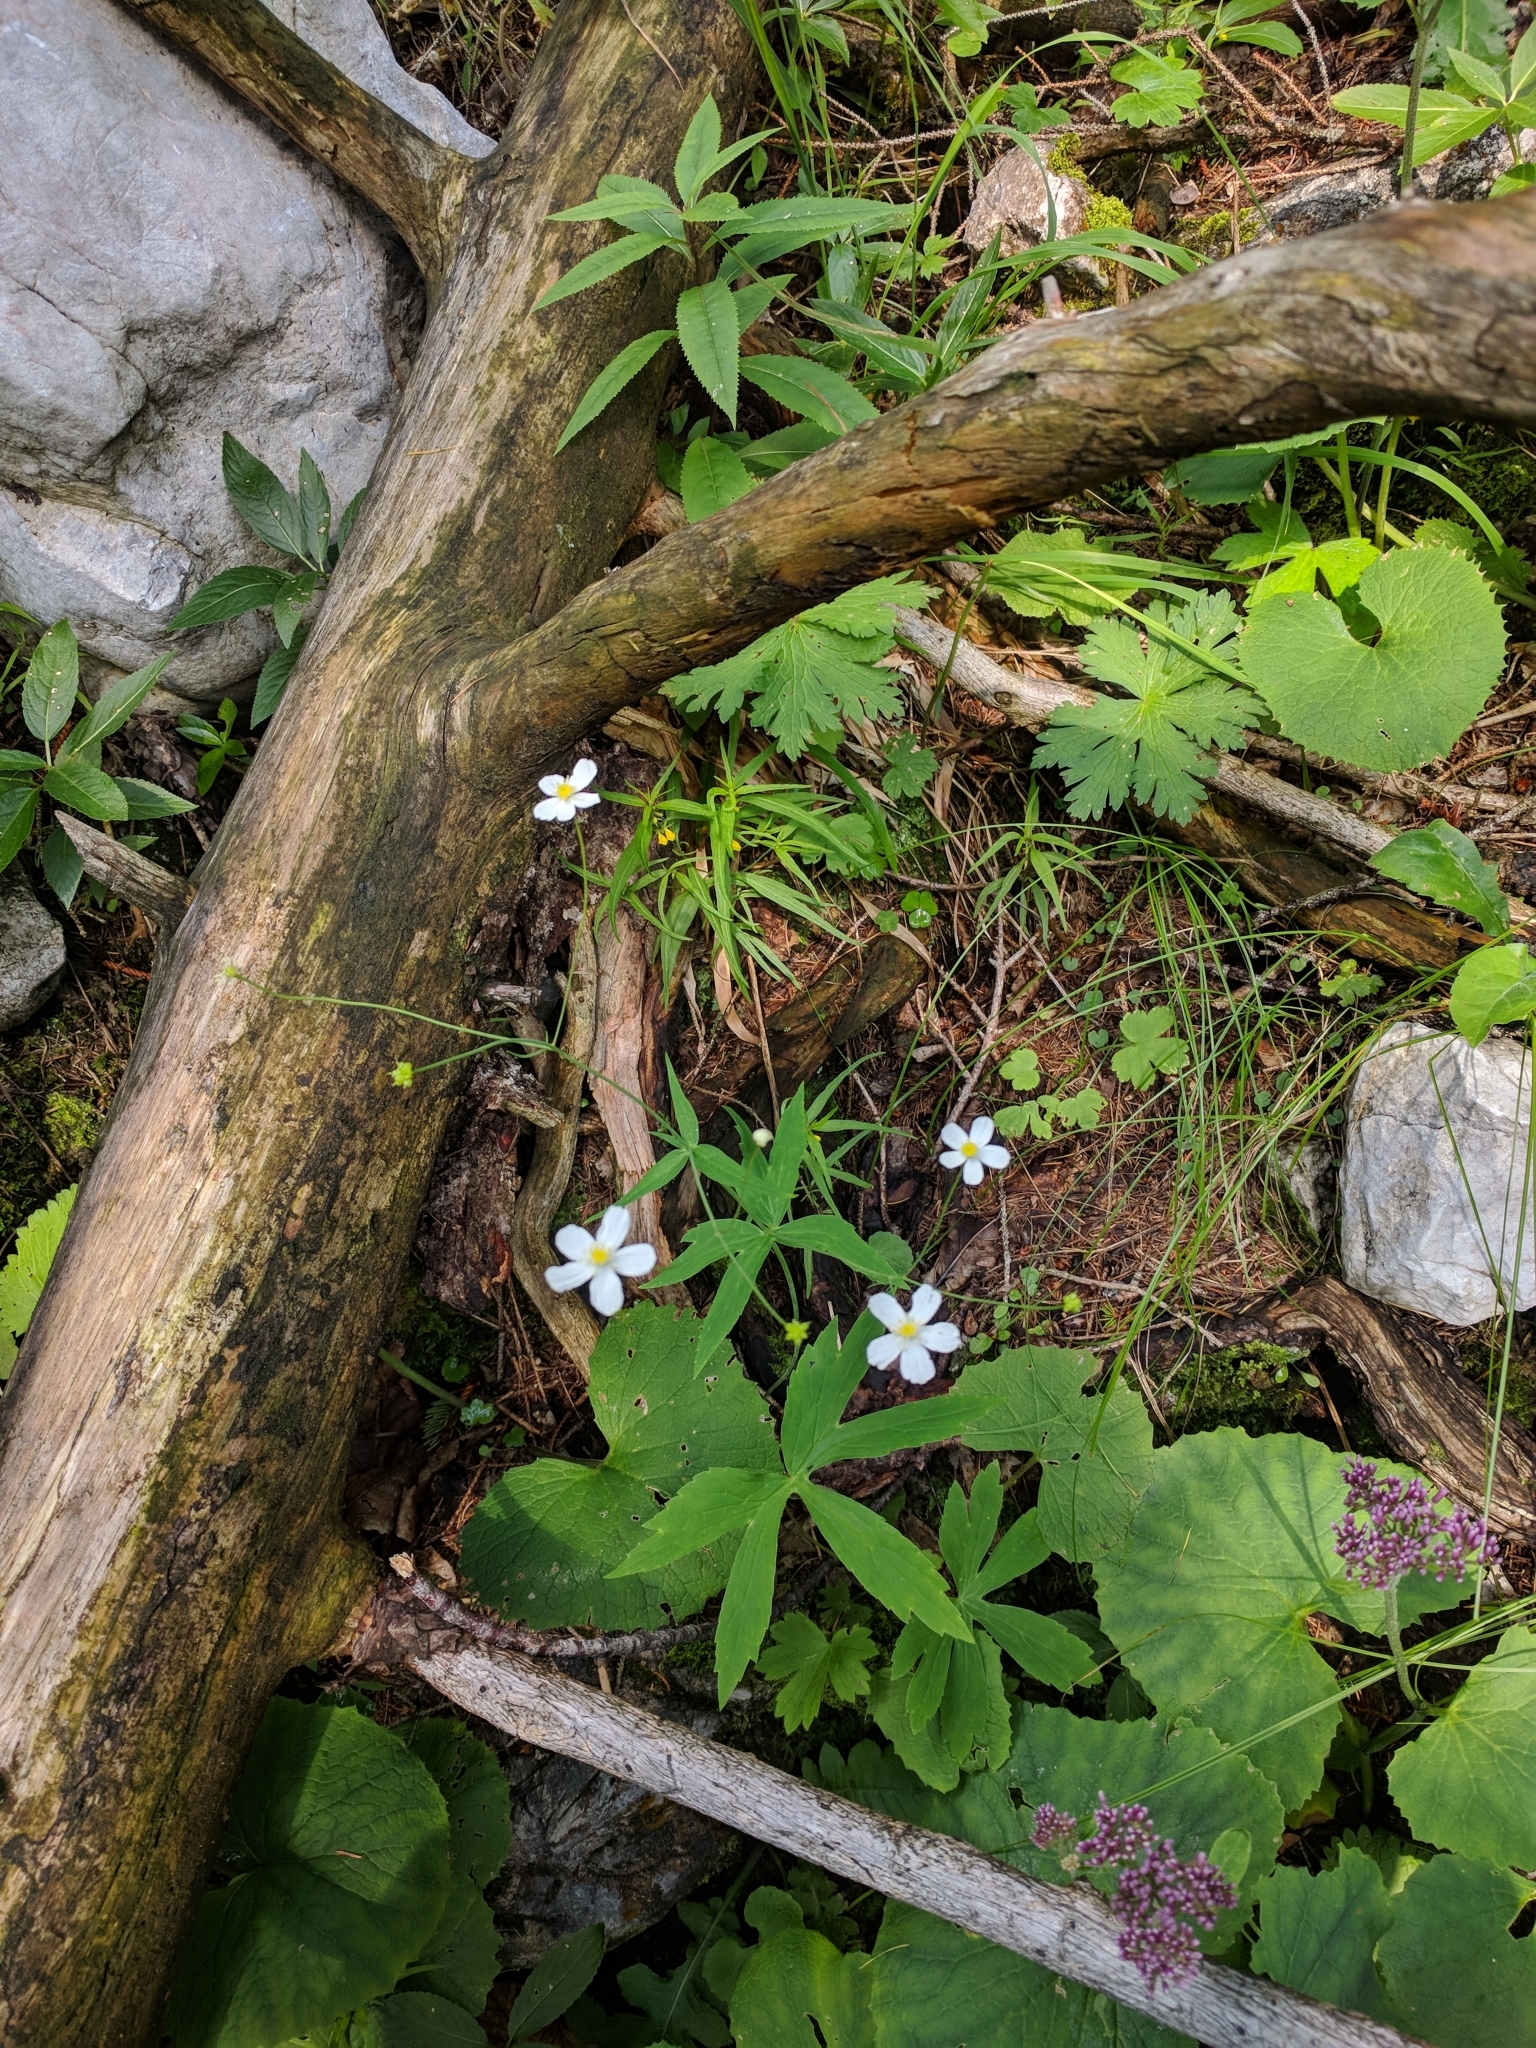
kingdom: Plantae
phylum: Tracheophyta
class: Magnoliopsida
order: Ranunculales
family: Ranunculaceae
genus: Ranunculus
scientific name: Ranunculus aconitifolius
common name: Aconite-leaved buttercup
